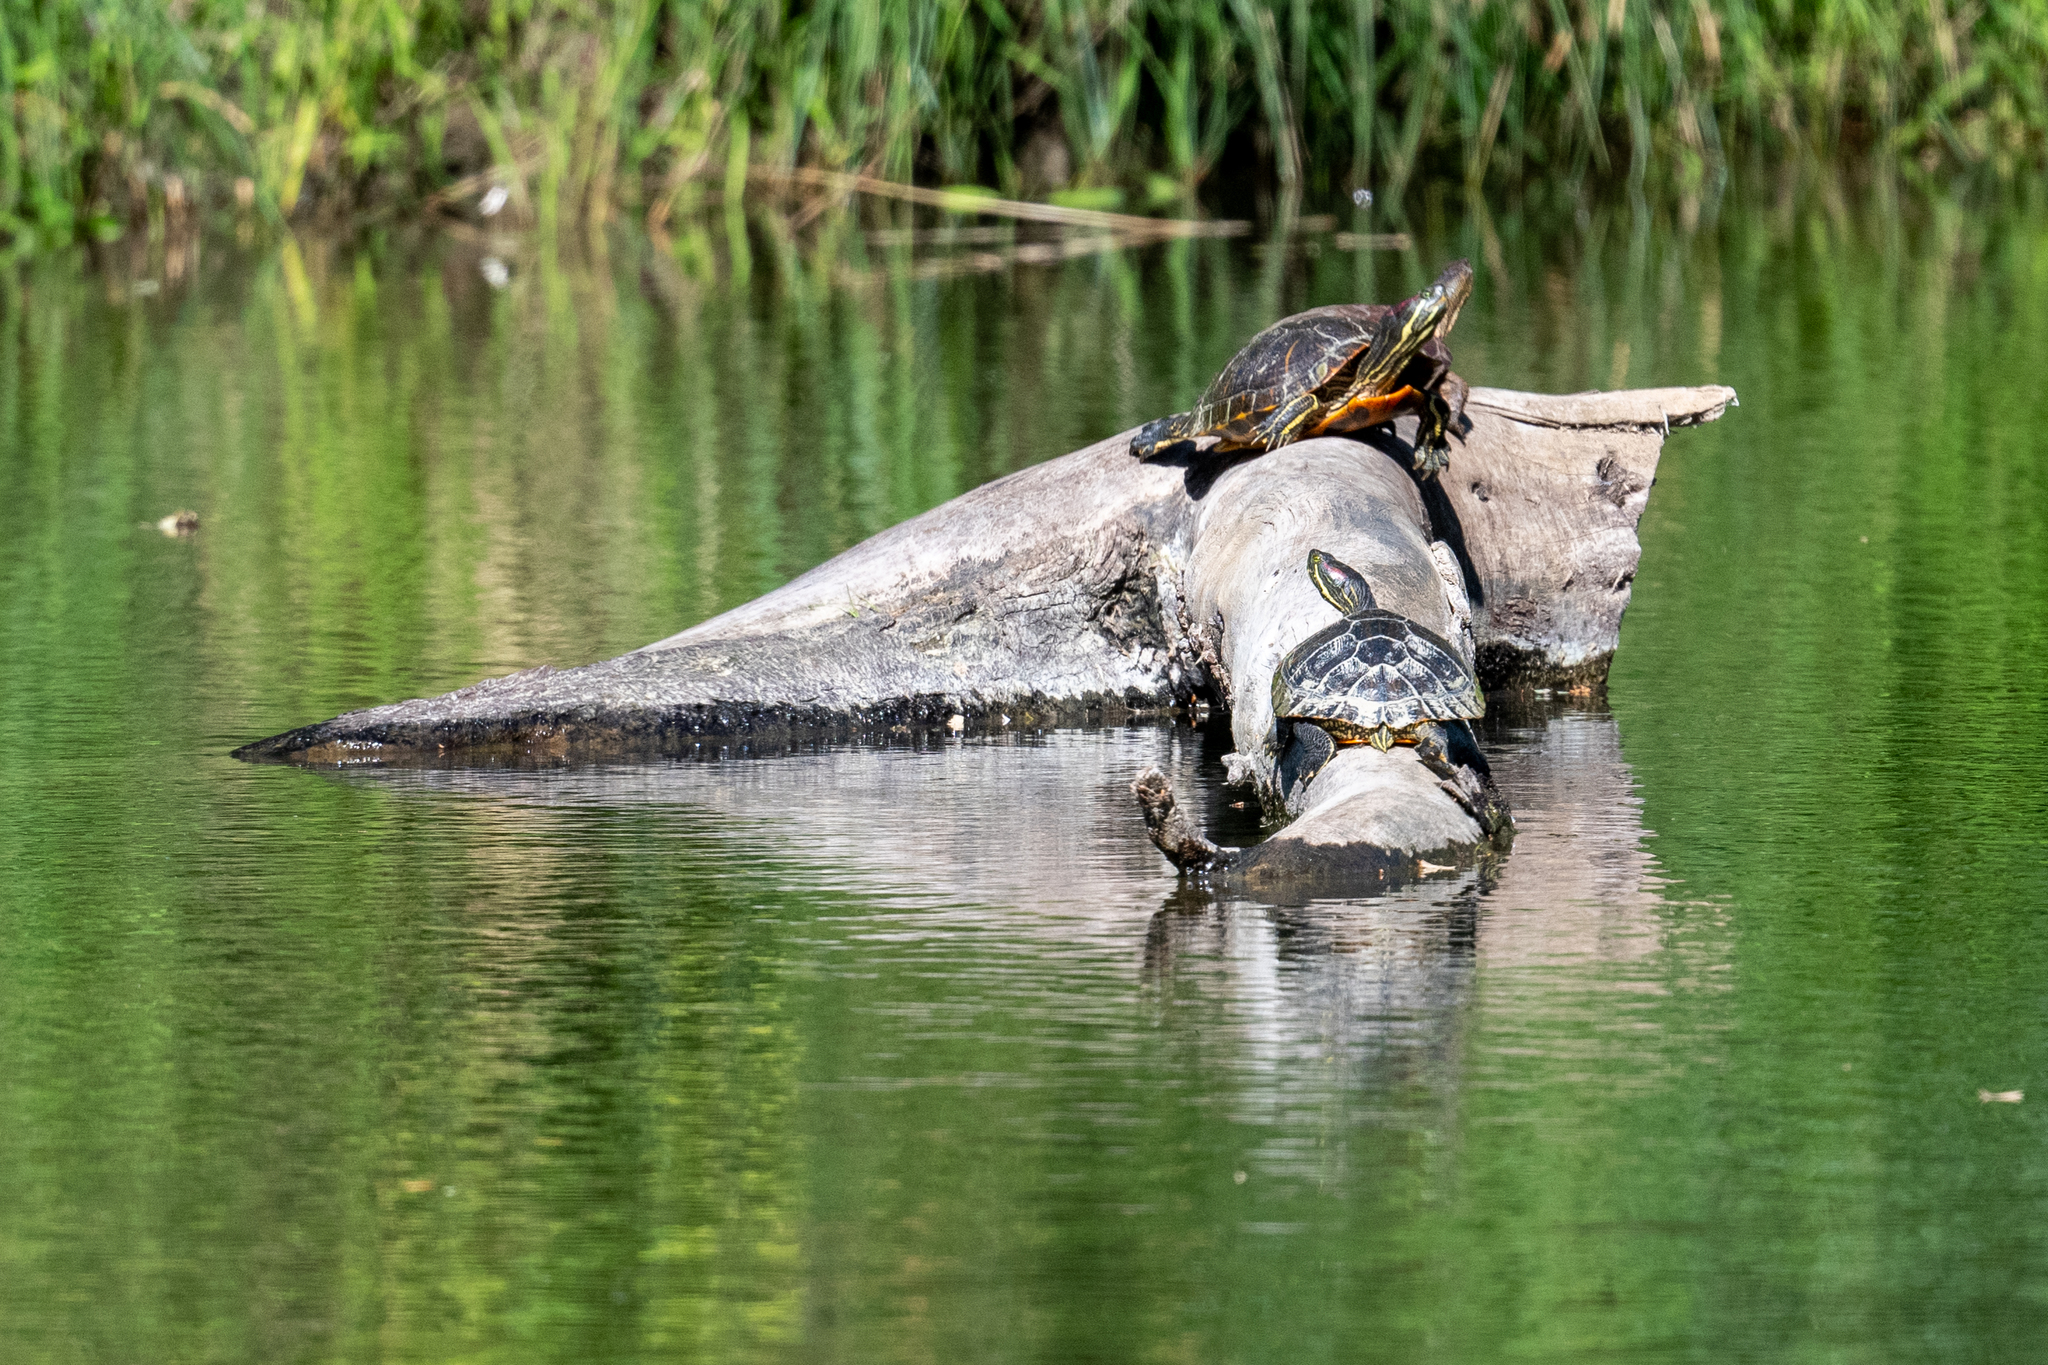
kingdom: Animalia
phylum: Chordata
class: Testudines
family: Emydidae
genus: Trachemys
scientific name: Trachemys scripta
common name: Slider
